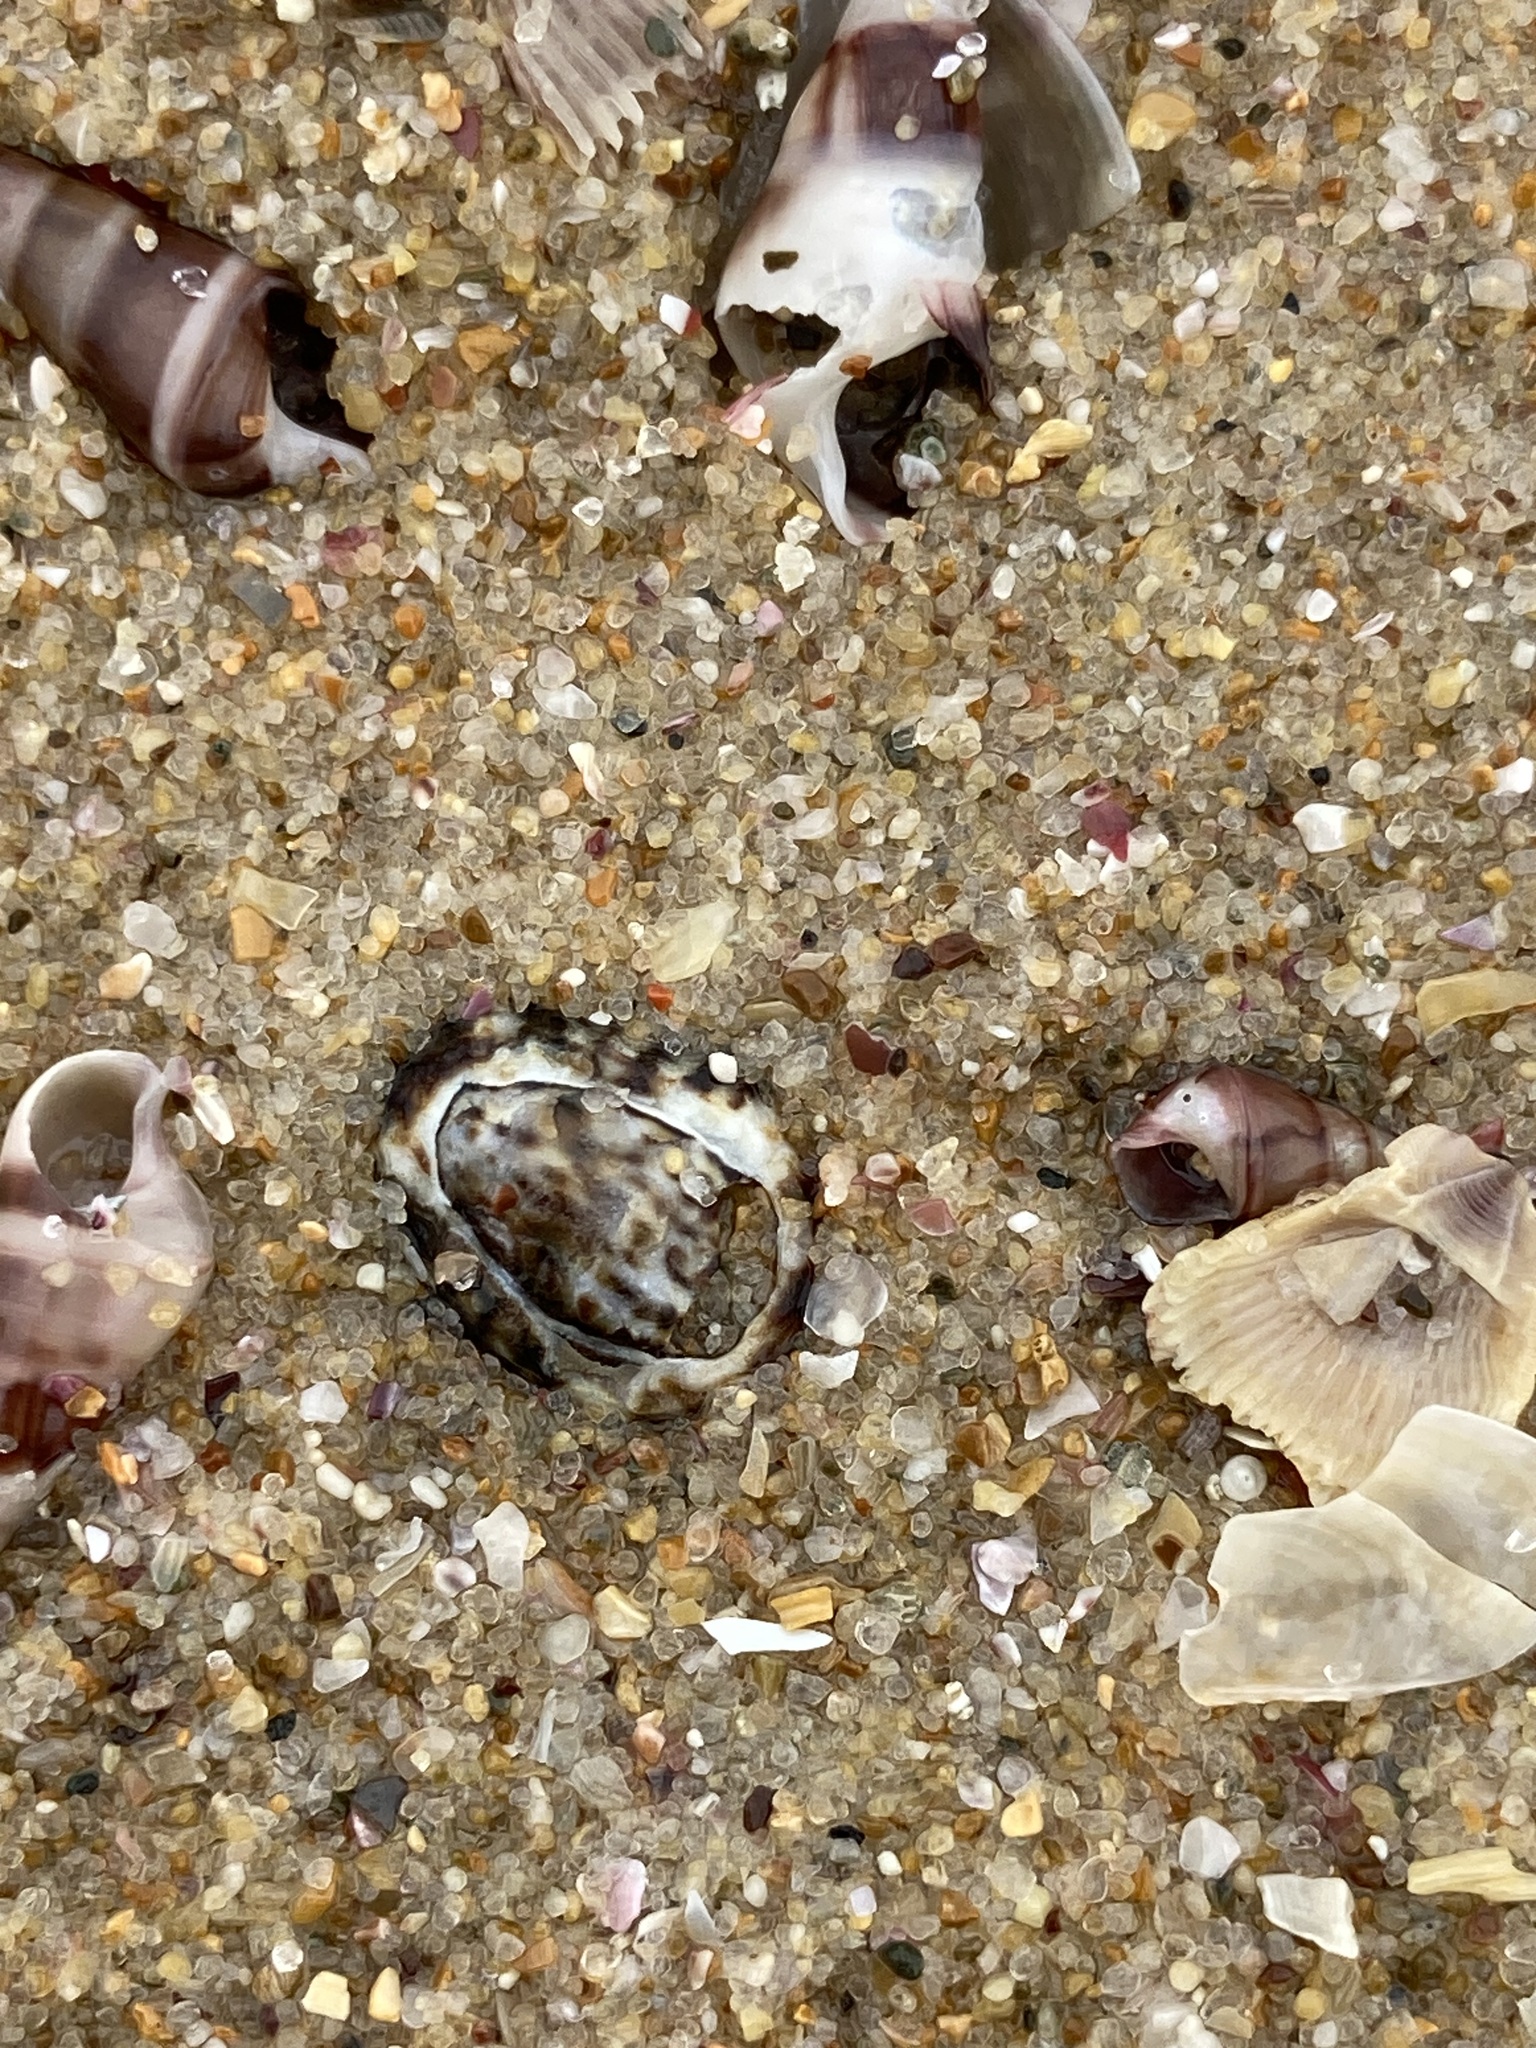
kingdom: Animalia
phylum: Mollusca
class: Gastropoda
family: Lottiidae
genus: Patelloida
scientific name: Patelloida latistrigata
